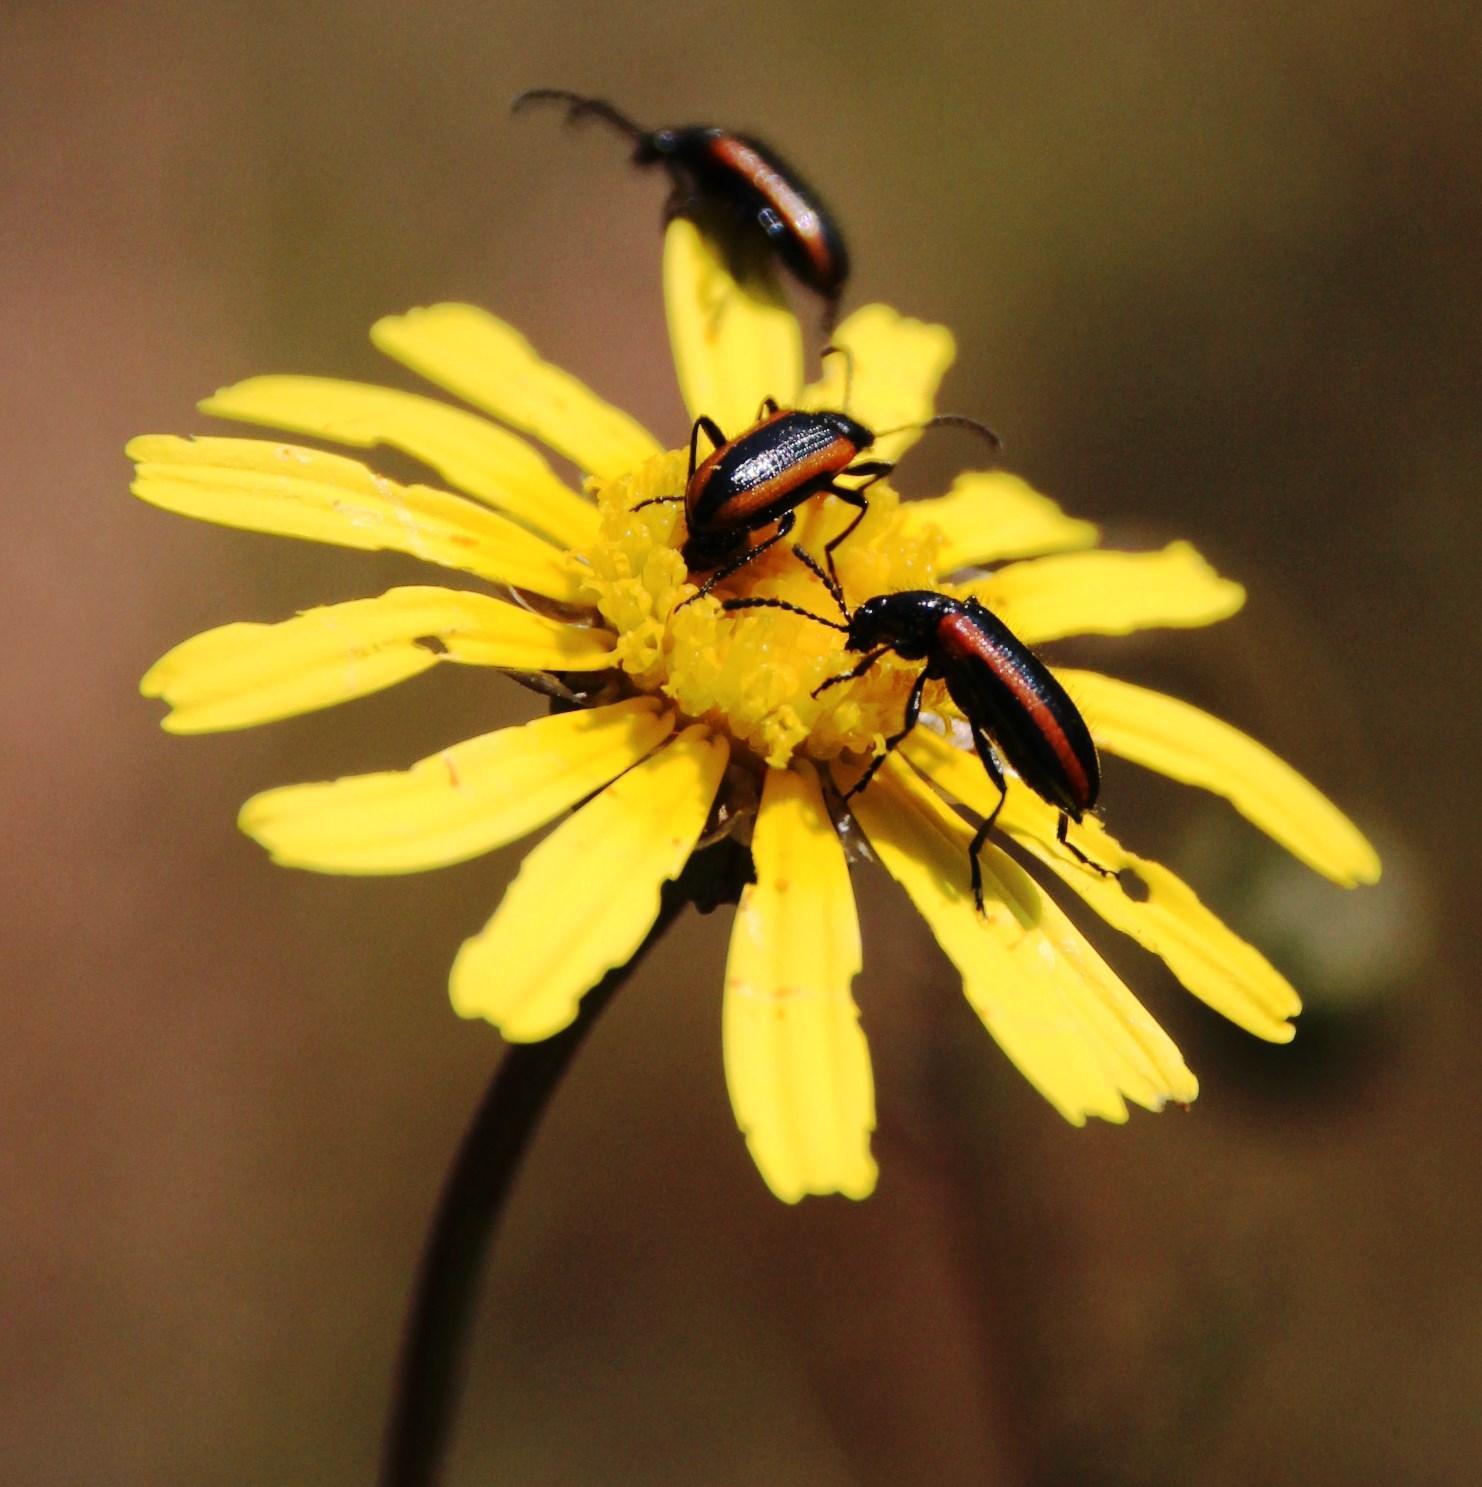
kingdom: Plantae
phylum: Tracheophyta
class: Magnoliopsida
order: Asterales
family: Asteraceae
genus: Ursinia
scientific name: Ursinia anthemoides
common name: Ursinia
